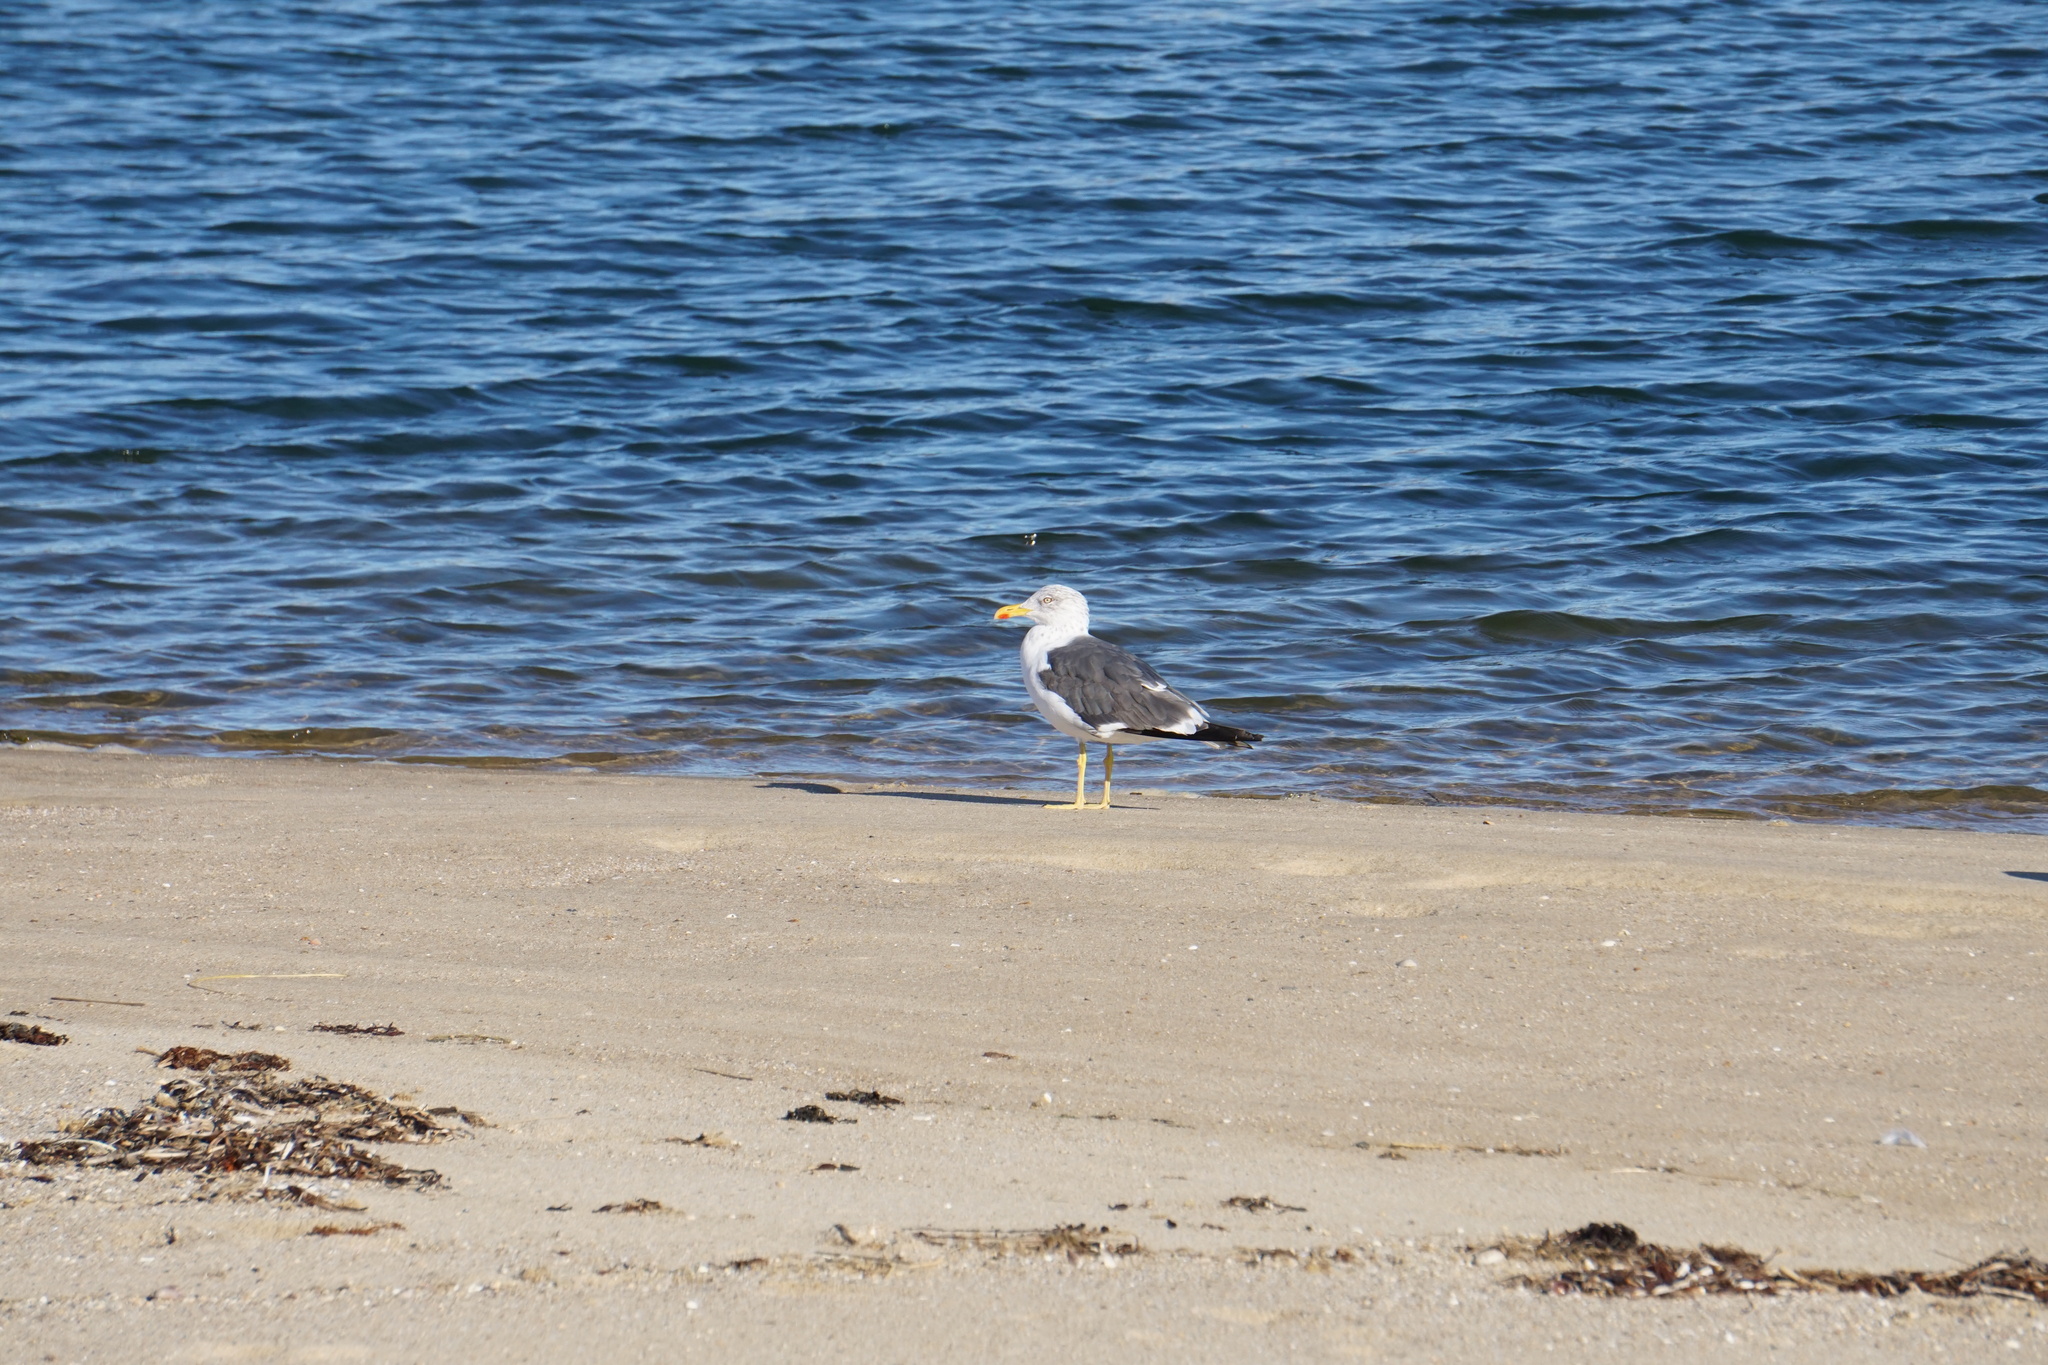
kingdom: Animalia
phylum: Chordata
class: Aves
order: Charadriiformes
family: Laridae
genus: Larus
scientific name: Larus fuscus
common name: Lesser black-backed gull
